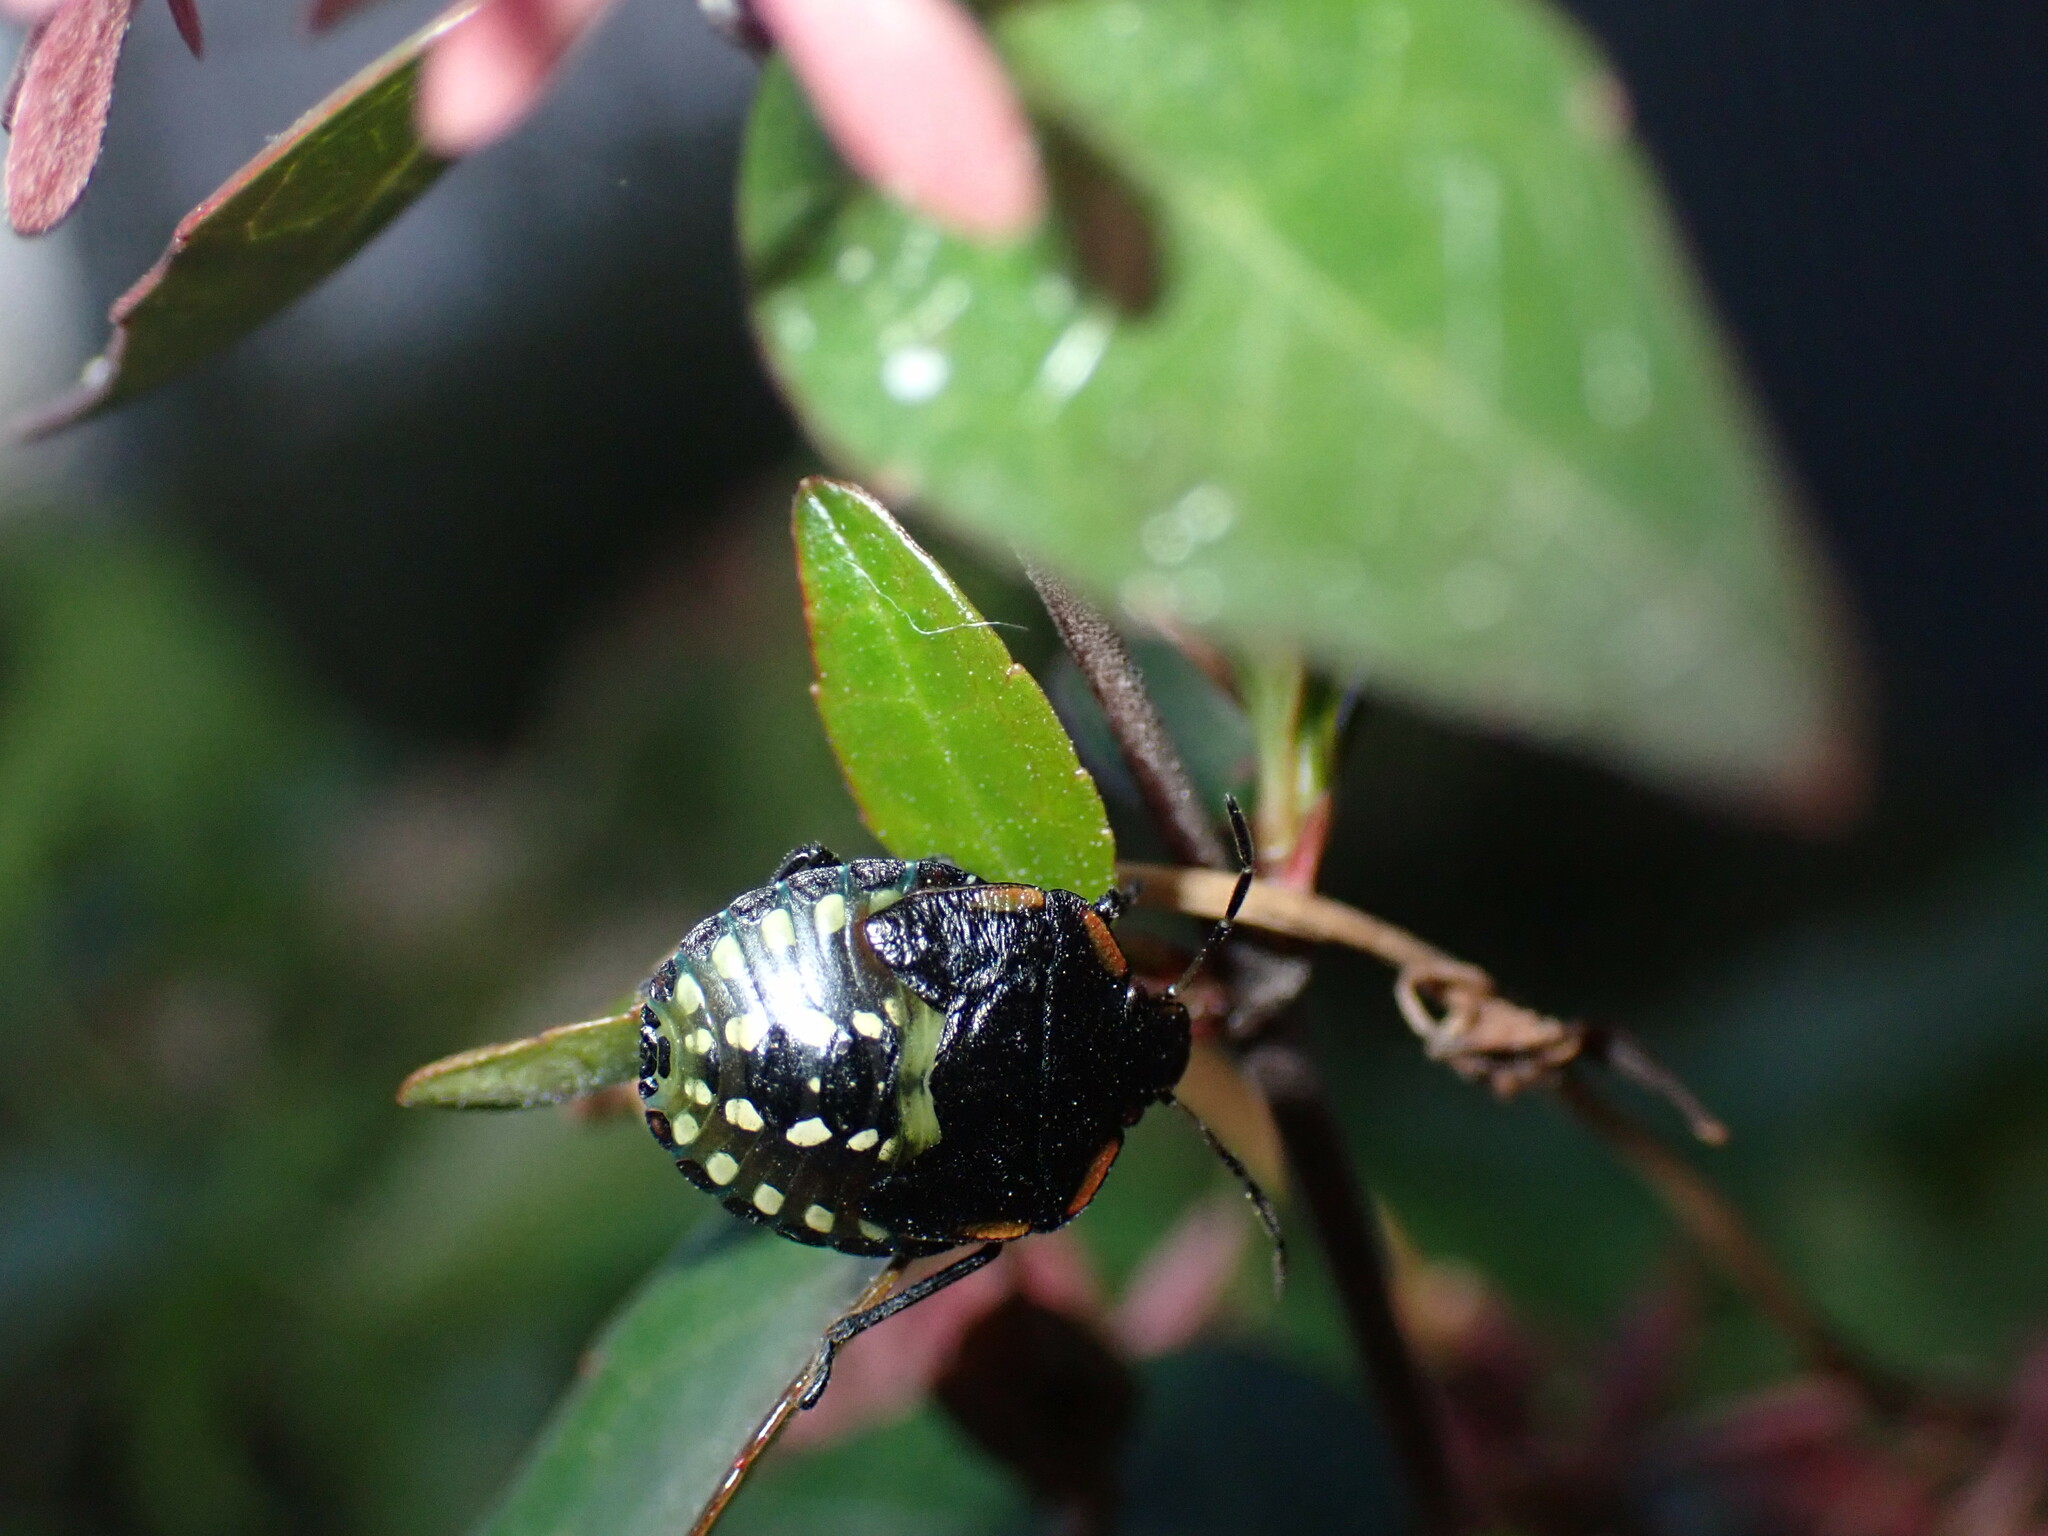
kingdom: Animalia
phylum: Arthropoda
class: Insecta
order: Hemiptera
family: Pentatomidae
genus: Nezara
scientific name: Nezara viridula
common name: Southern green stink bug
